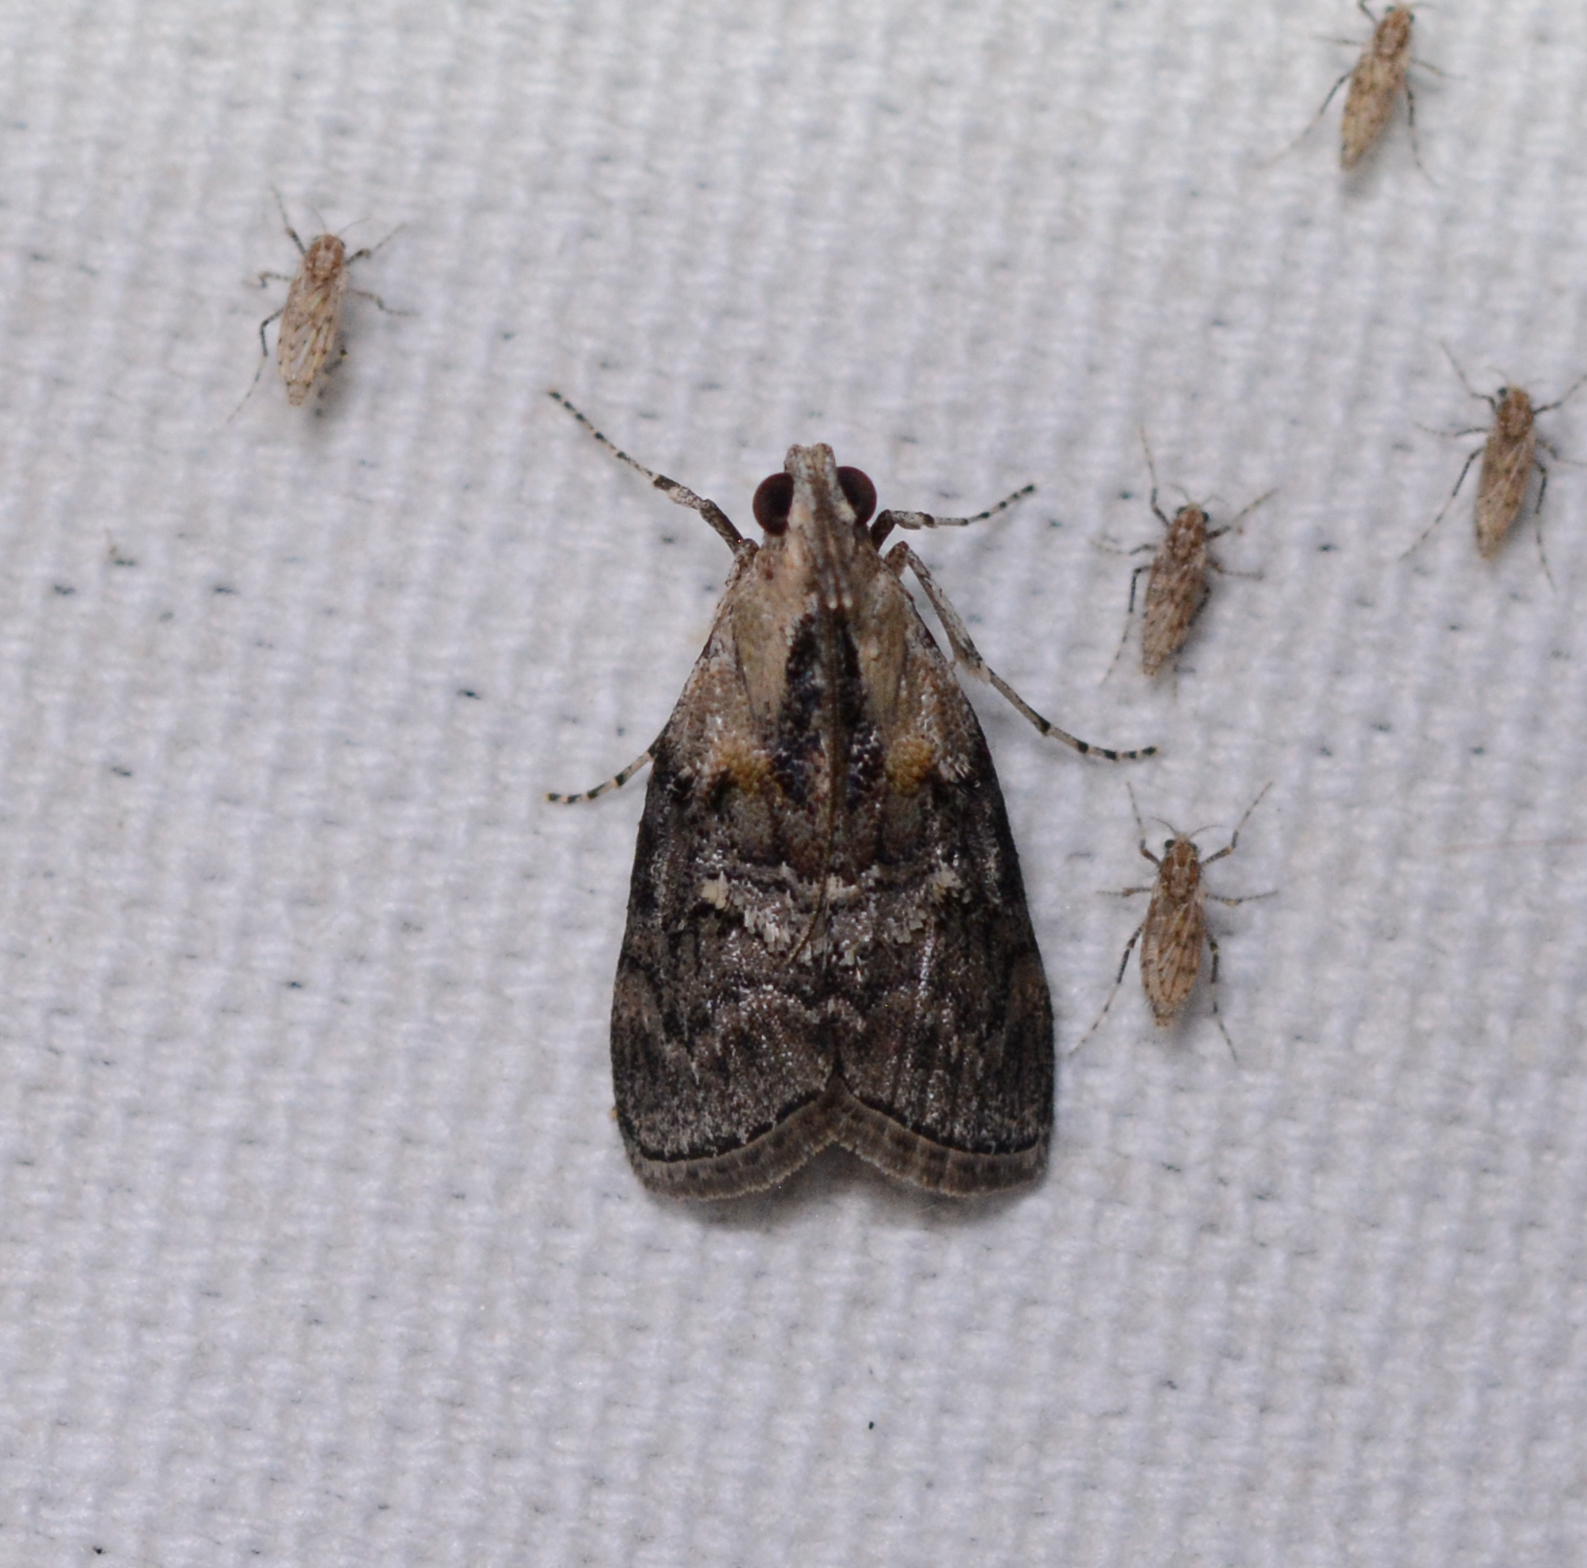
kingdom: Animalia
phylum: Arthropoda
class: Insecta
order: Lepidoptera
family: Pyralidae
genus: Pococera
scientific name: Pococera expandens
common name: Striped oak webworm moth
